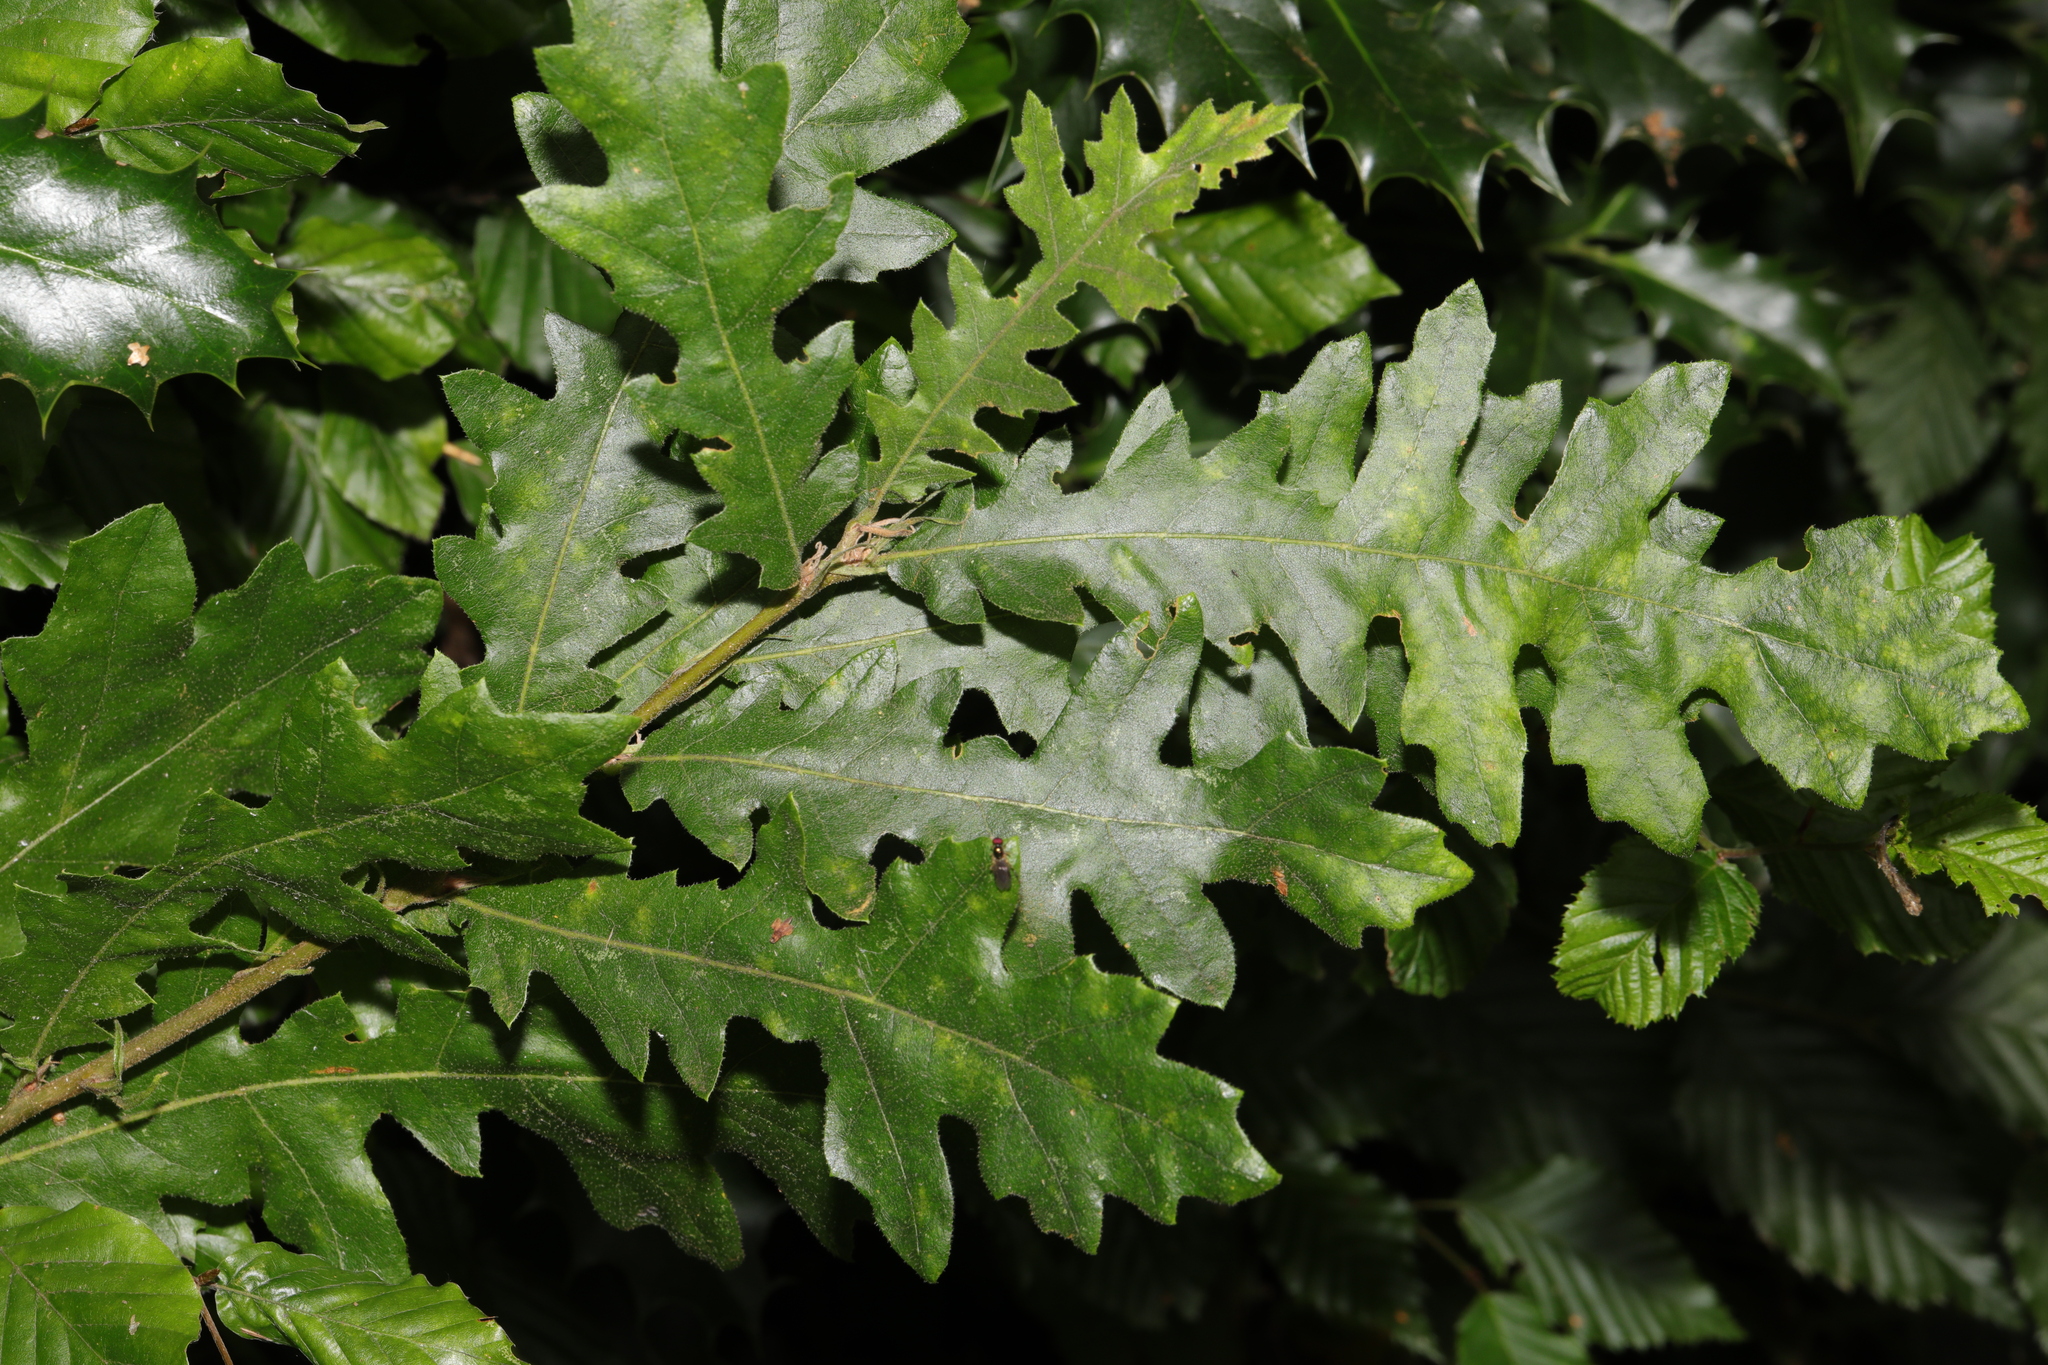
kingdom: Plantae
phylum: Tracheophyta
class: Magnoliopsida
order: Fagales
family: Fagaceae
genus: Quercus
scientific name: Quercus cerris
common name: Turkey oak
